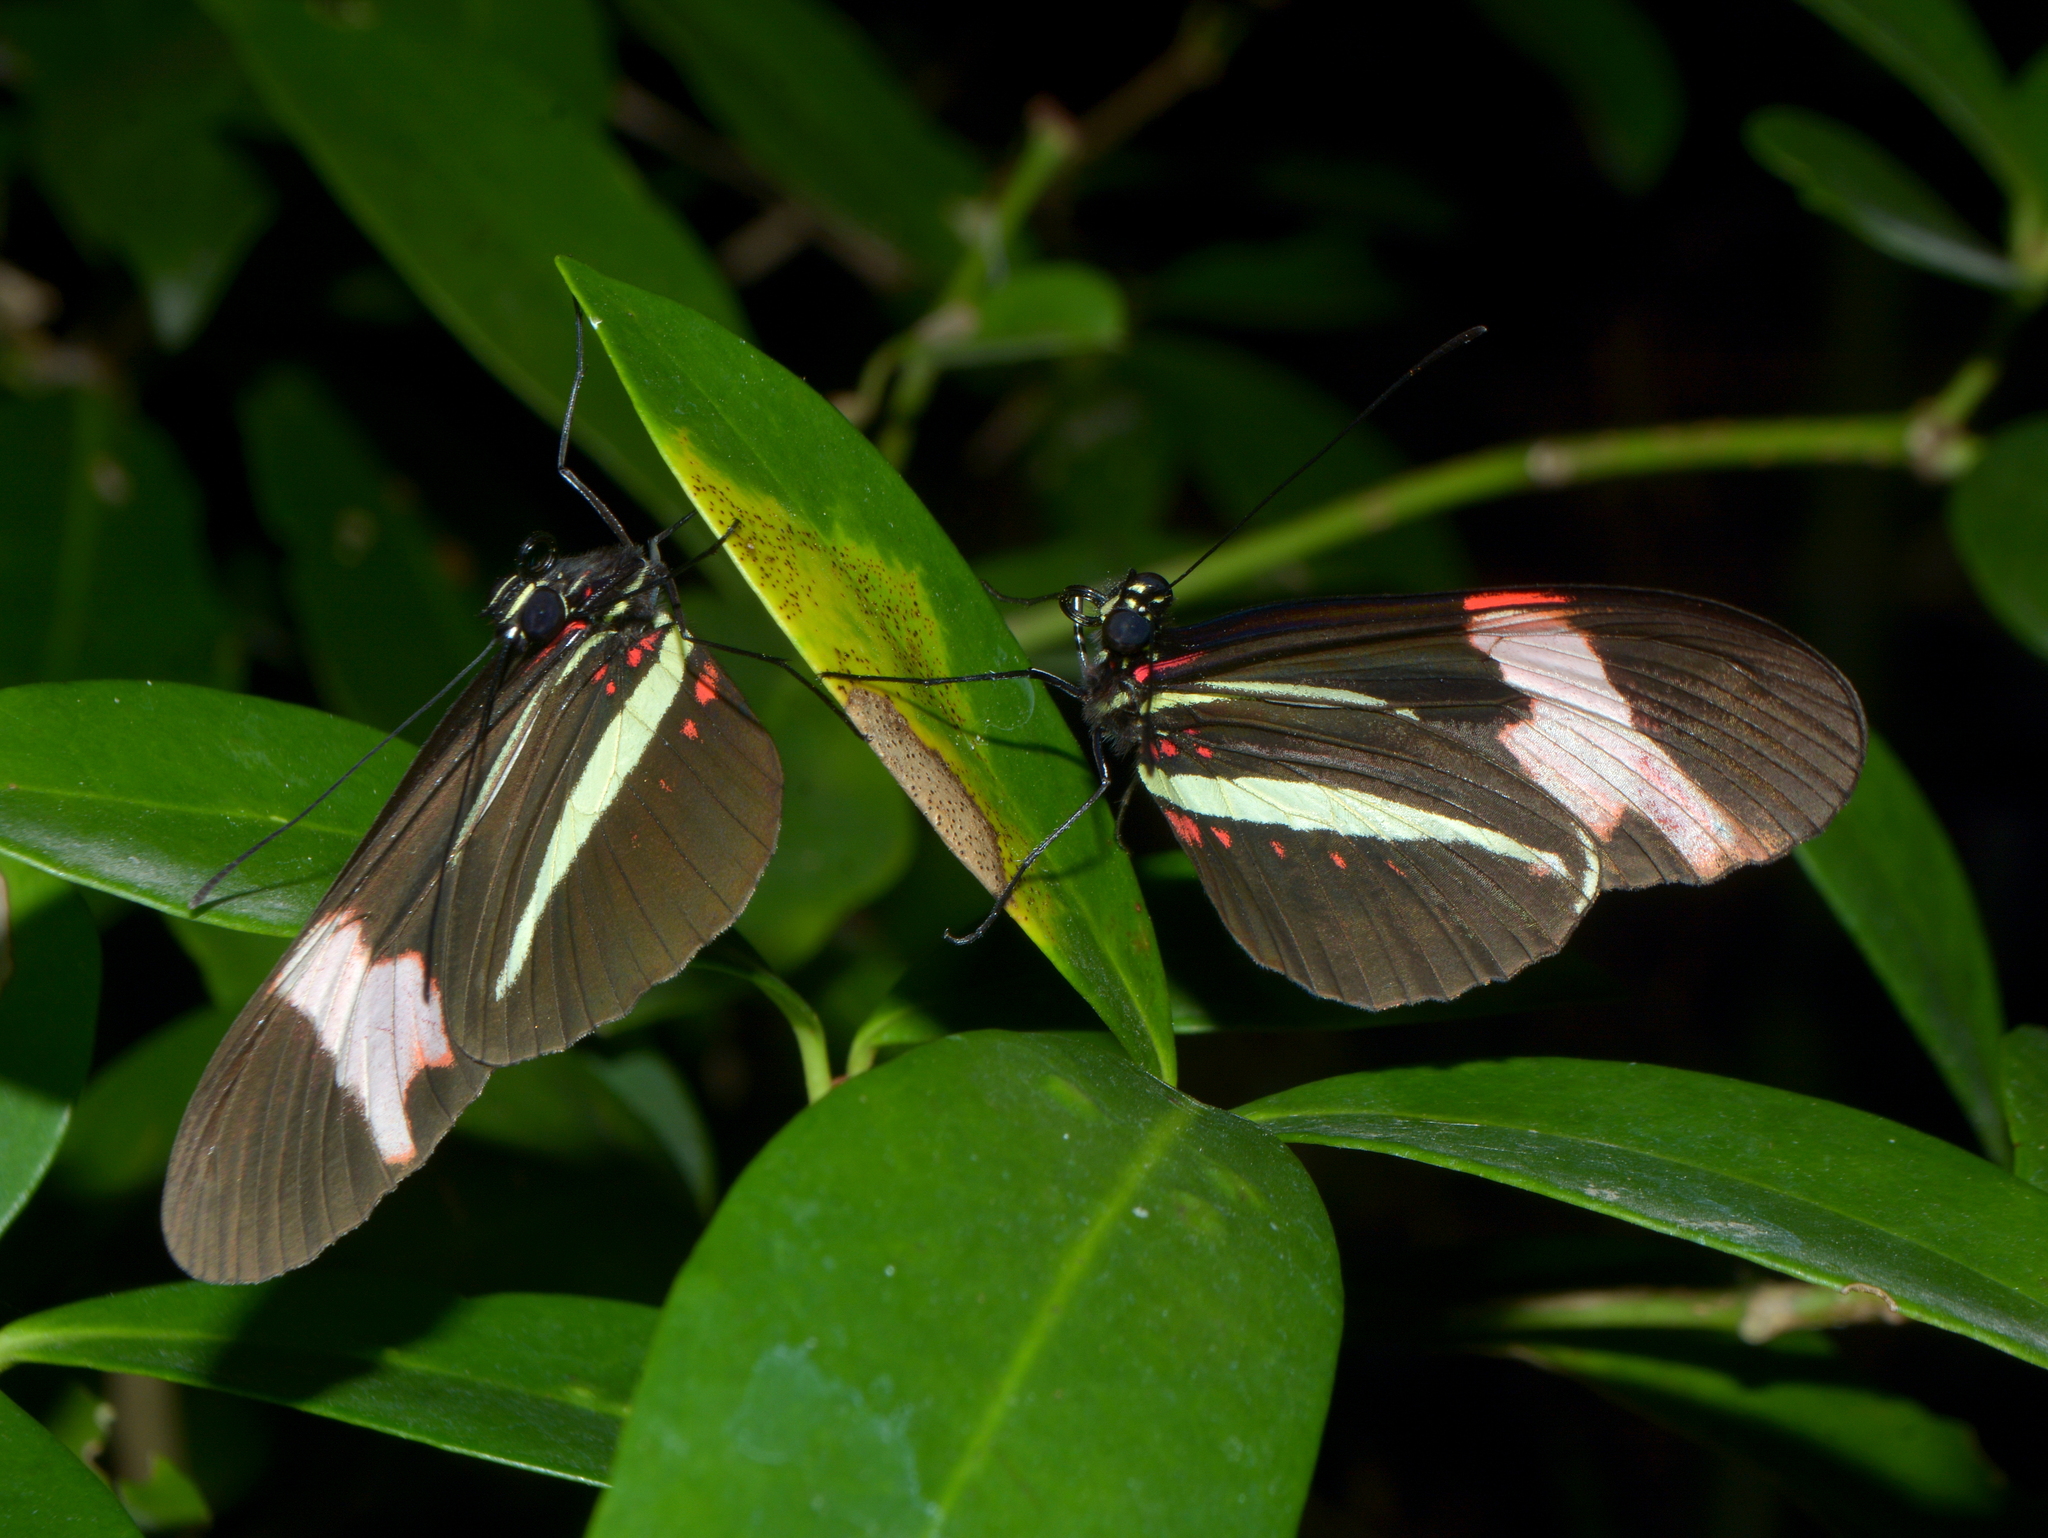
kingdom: Animalia
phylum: Arthropoda
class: Insecta
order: Lepidoptera
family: Nymphalidae
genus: Heliconius
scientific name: Heliconius erato
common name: Common patch longwing
